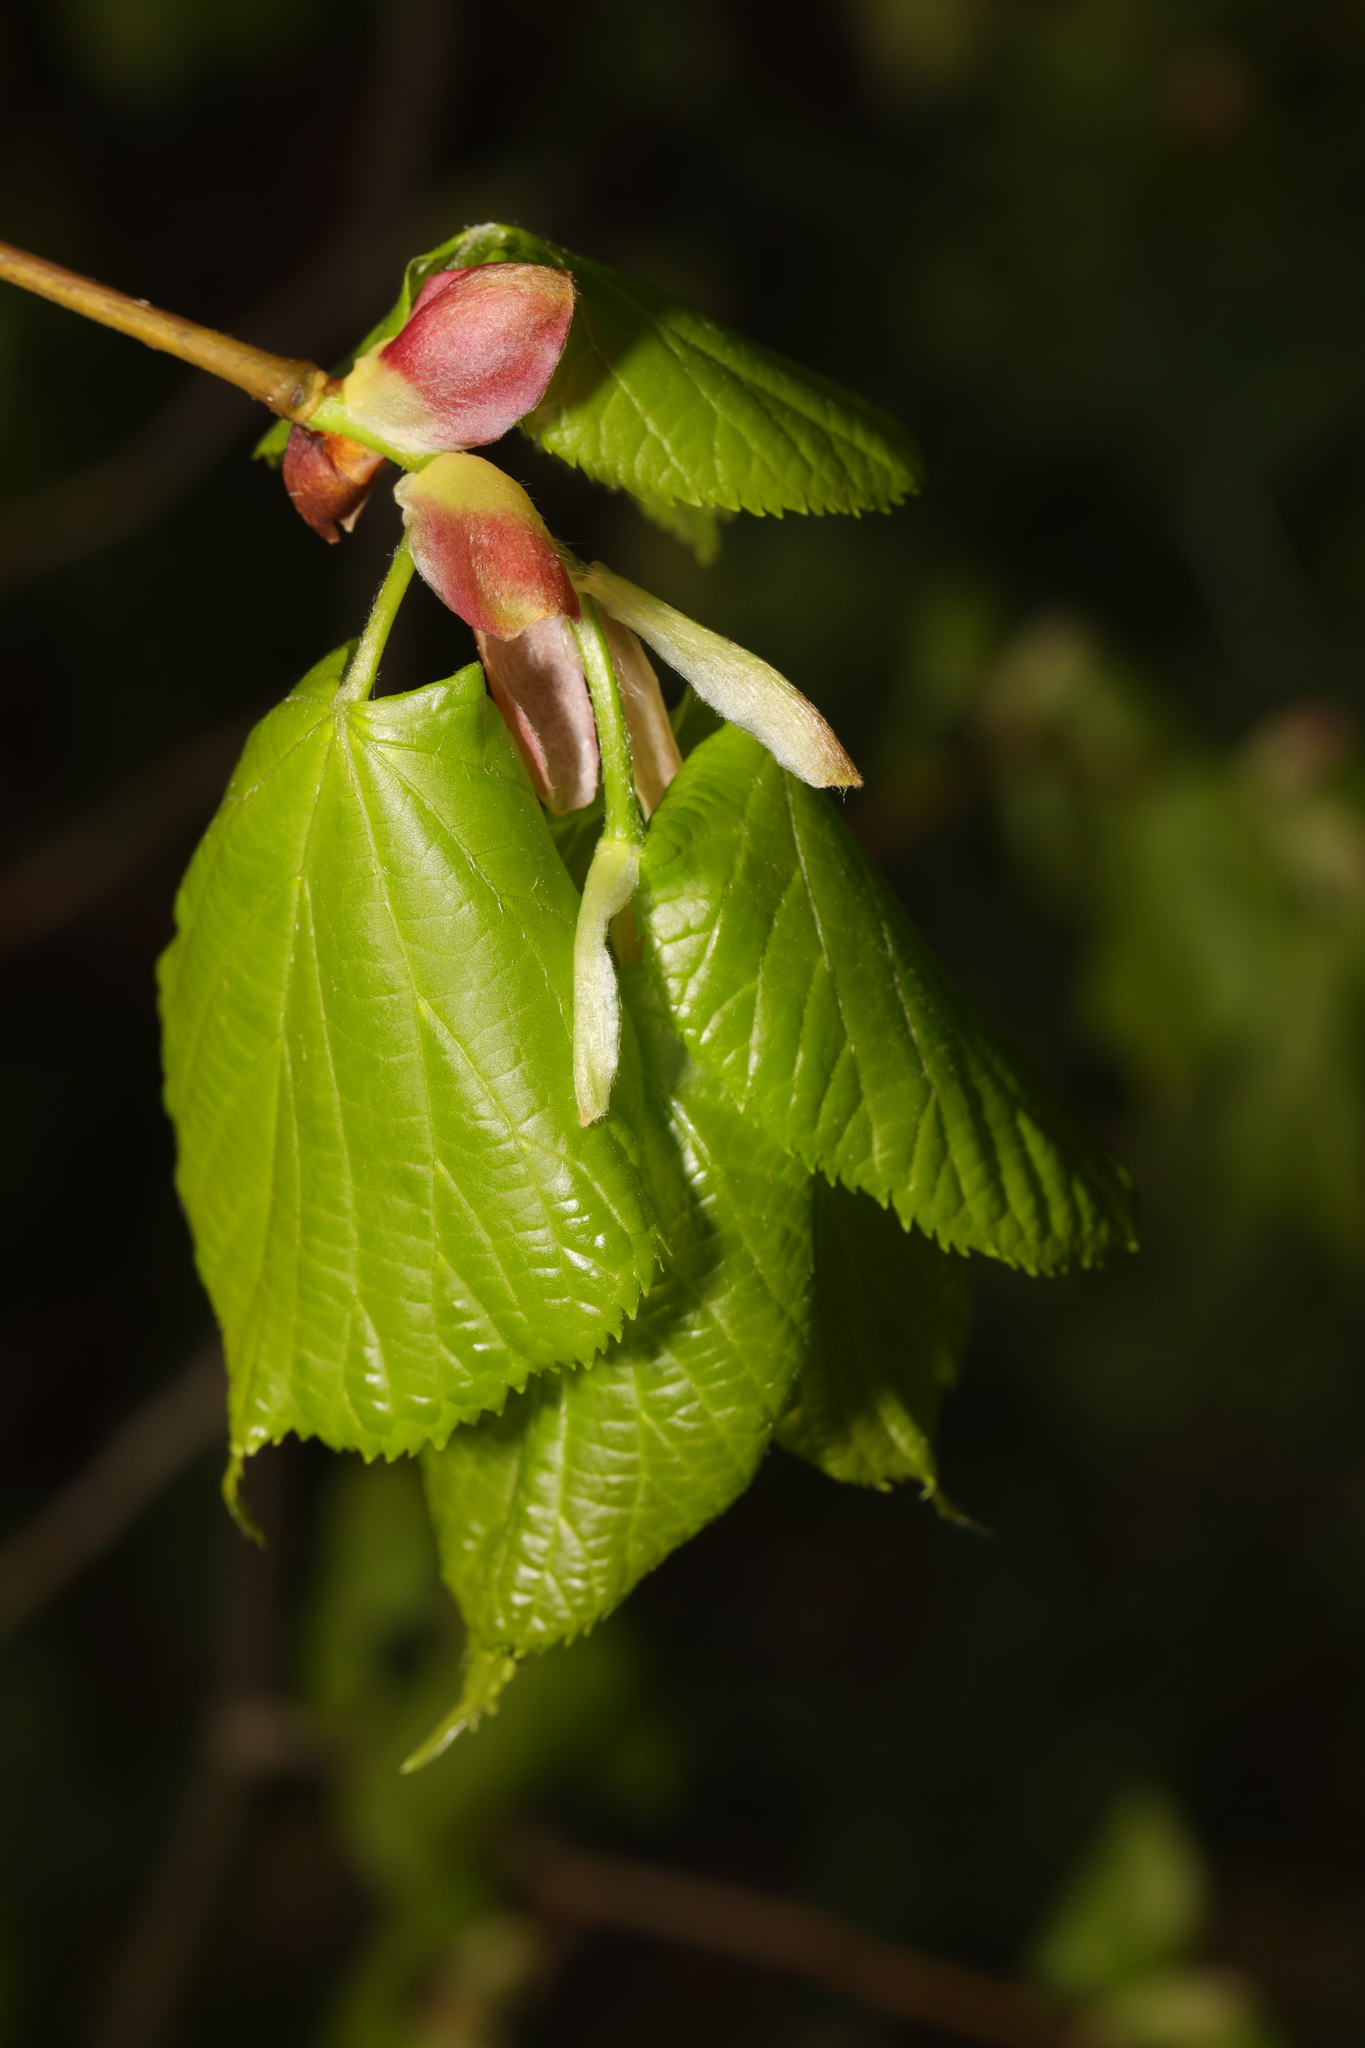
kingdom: Plantae
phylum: Tracheophyta
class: Magnoliopsida
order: Malvales
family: Malvaceae
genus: Tilia
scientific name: Tilia europaea
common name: European linden
